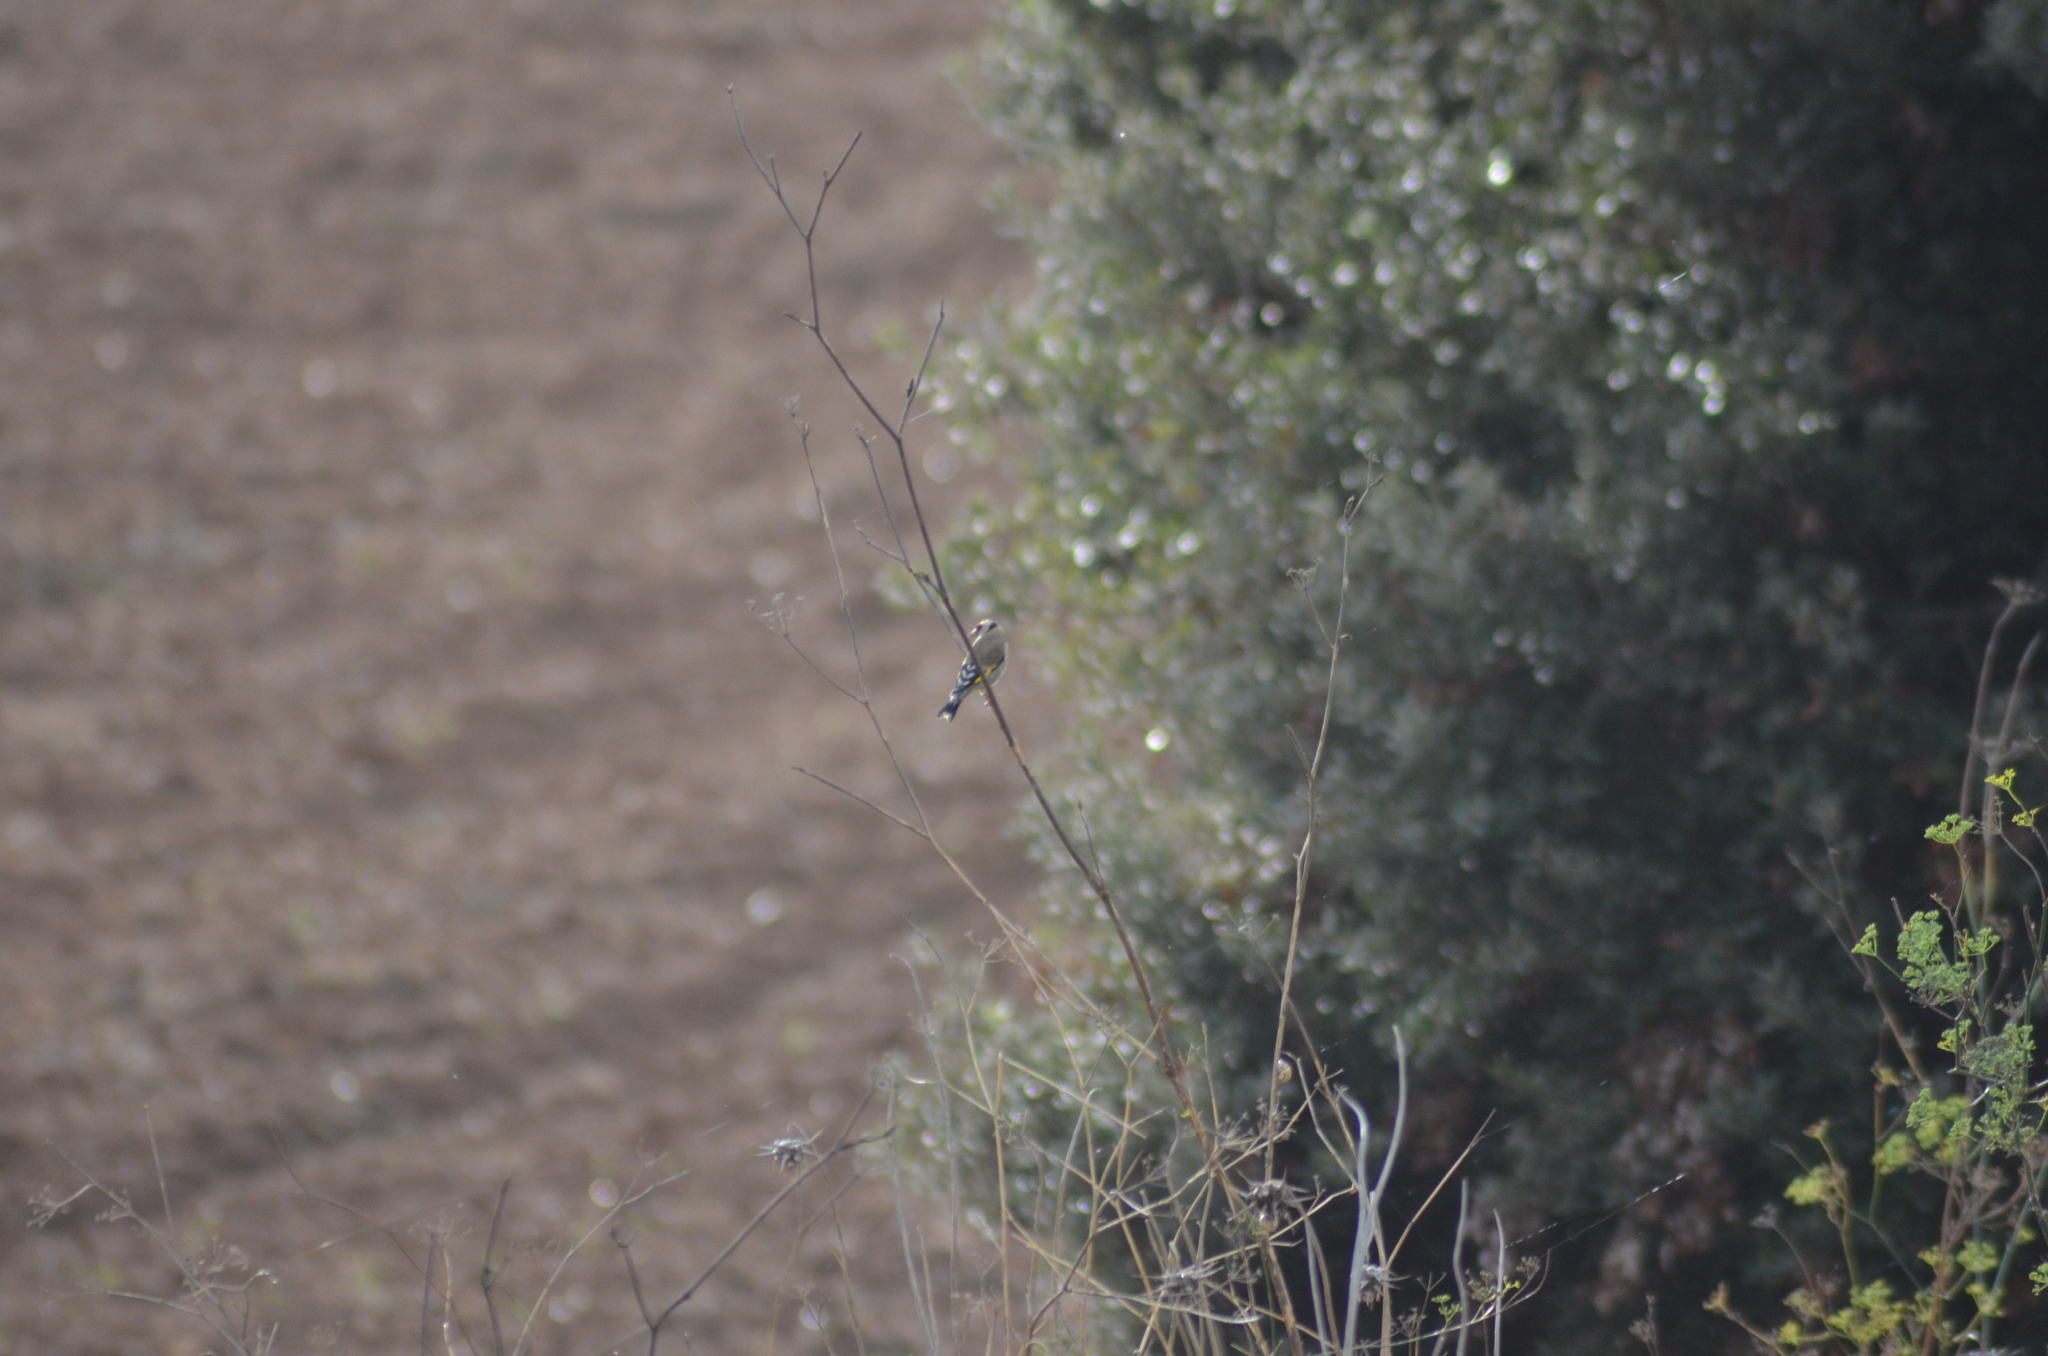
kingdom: Animalia
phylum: Chordata
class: Aves
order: Passeriformes
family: Fringillidae
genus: Carduelis
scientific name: Carduelis carduelis
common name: European goldfinch
